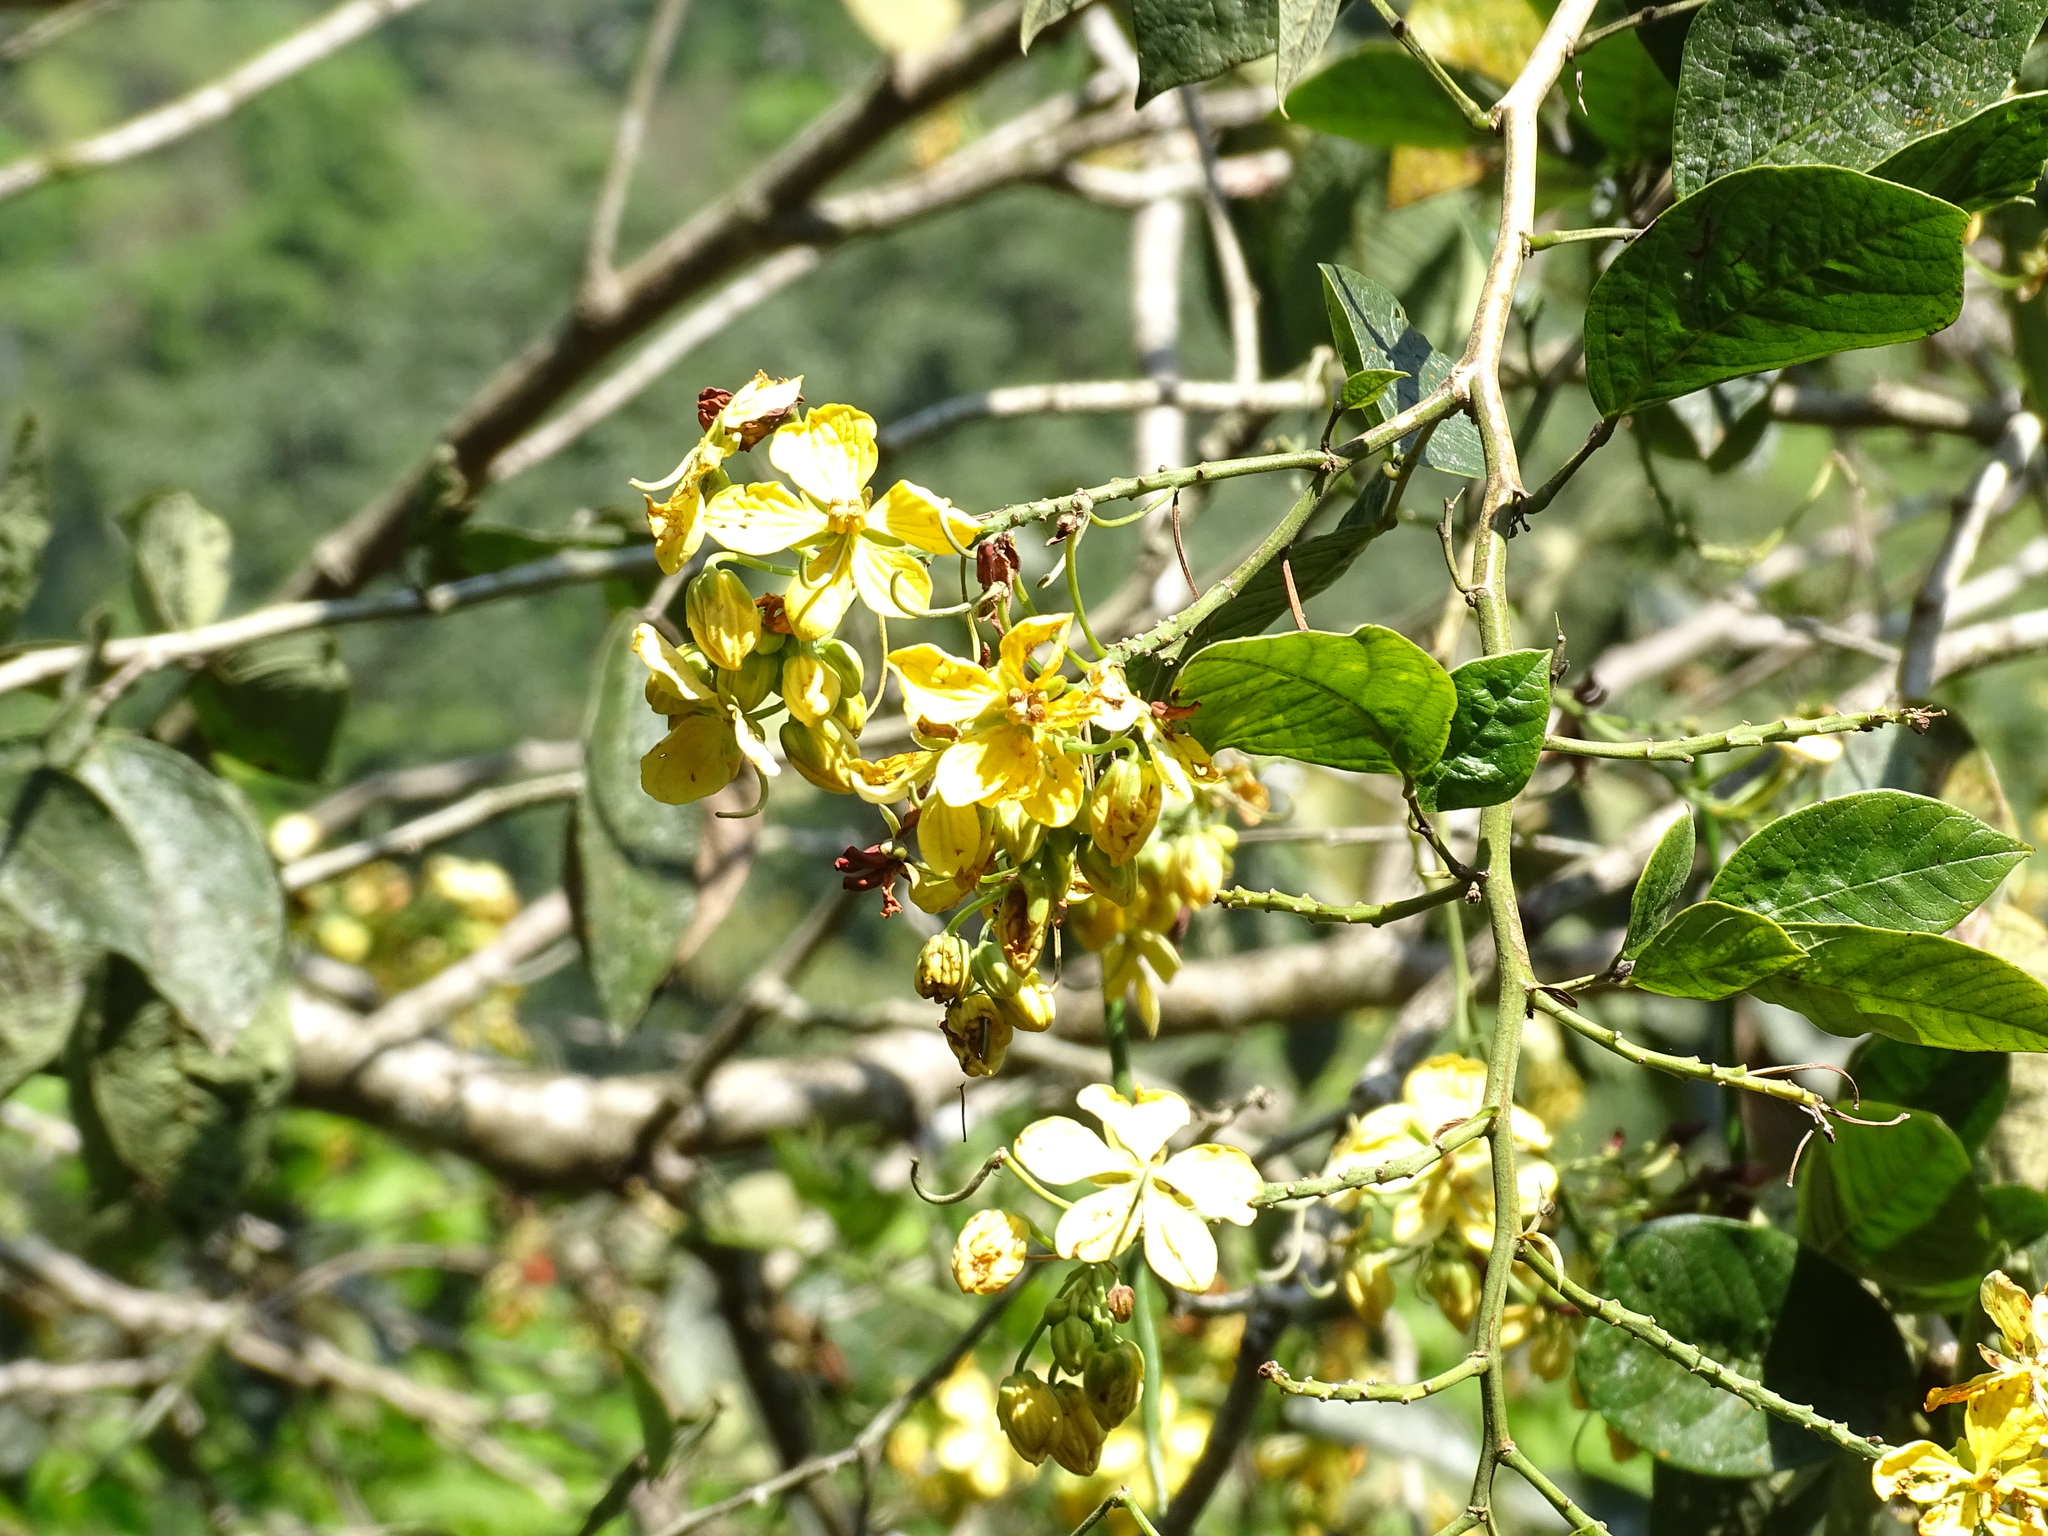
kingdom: Plantae
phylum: Tracheophyta
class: Magnoliopsida
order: Fabales
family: Fabaceae
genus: Senna
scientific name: Senna hayesiana
